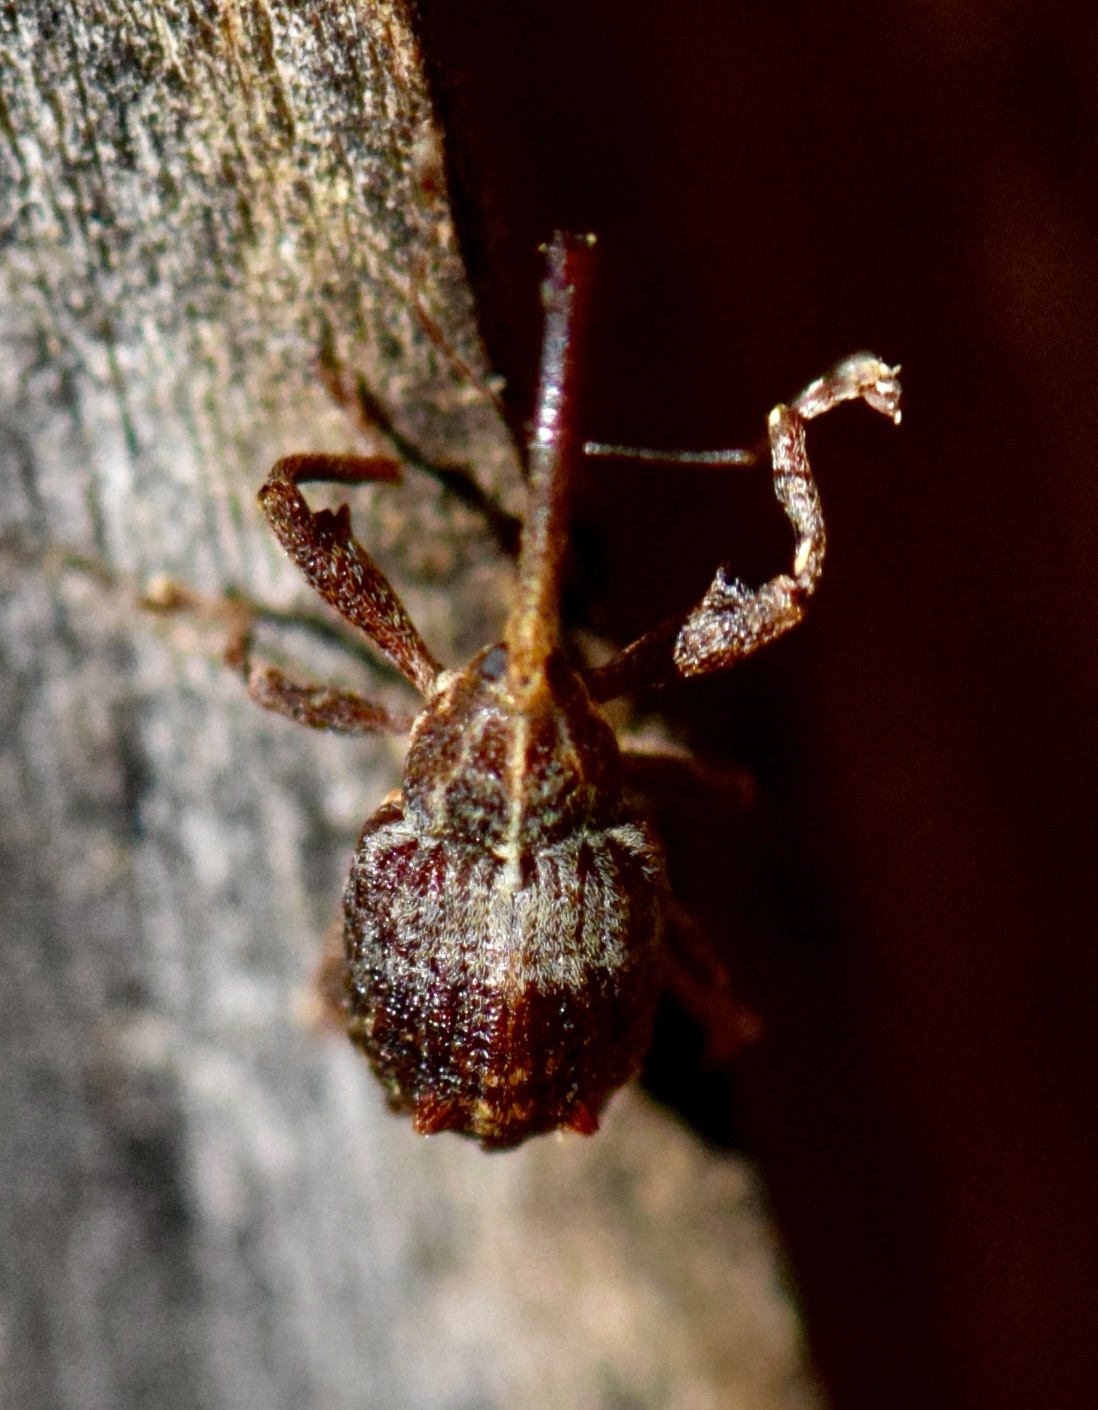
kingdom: Animalia
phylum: Arthropoda
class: Insecta
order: Coleoptera
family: Curculionidae
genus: Anthonomus
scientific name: Anthonomus quadrigibbus
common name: Apple curculio
